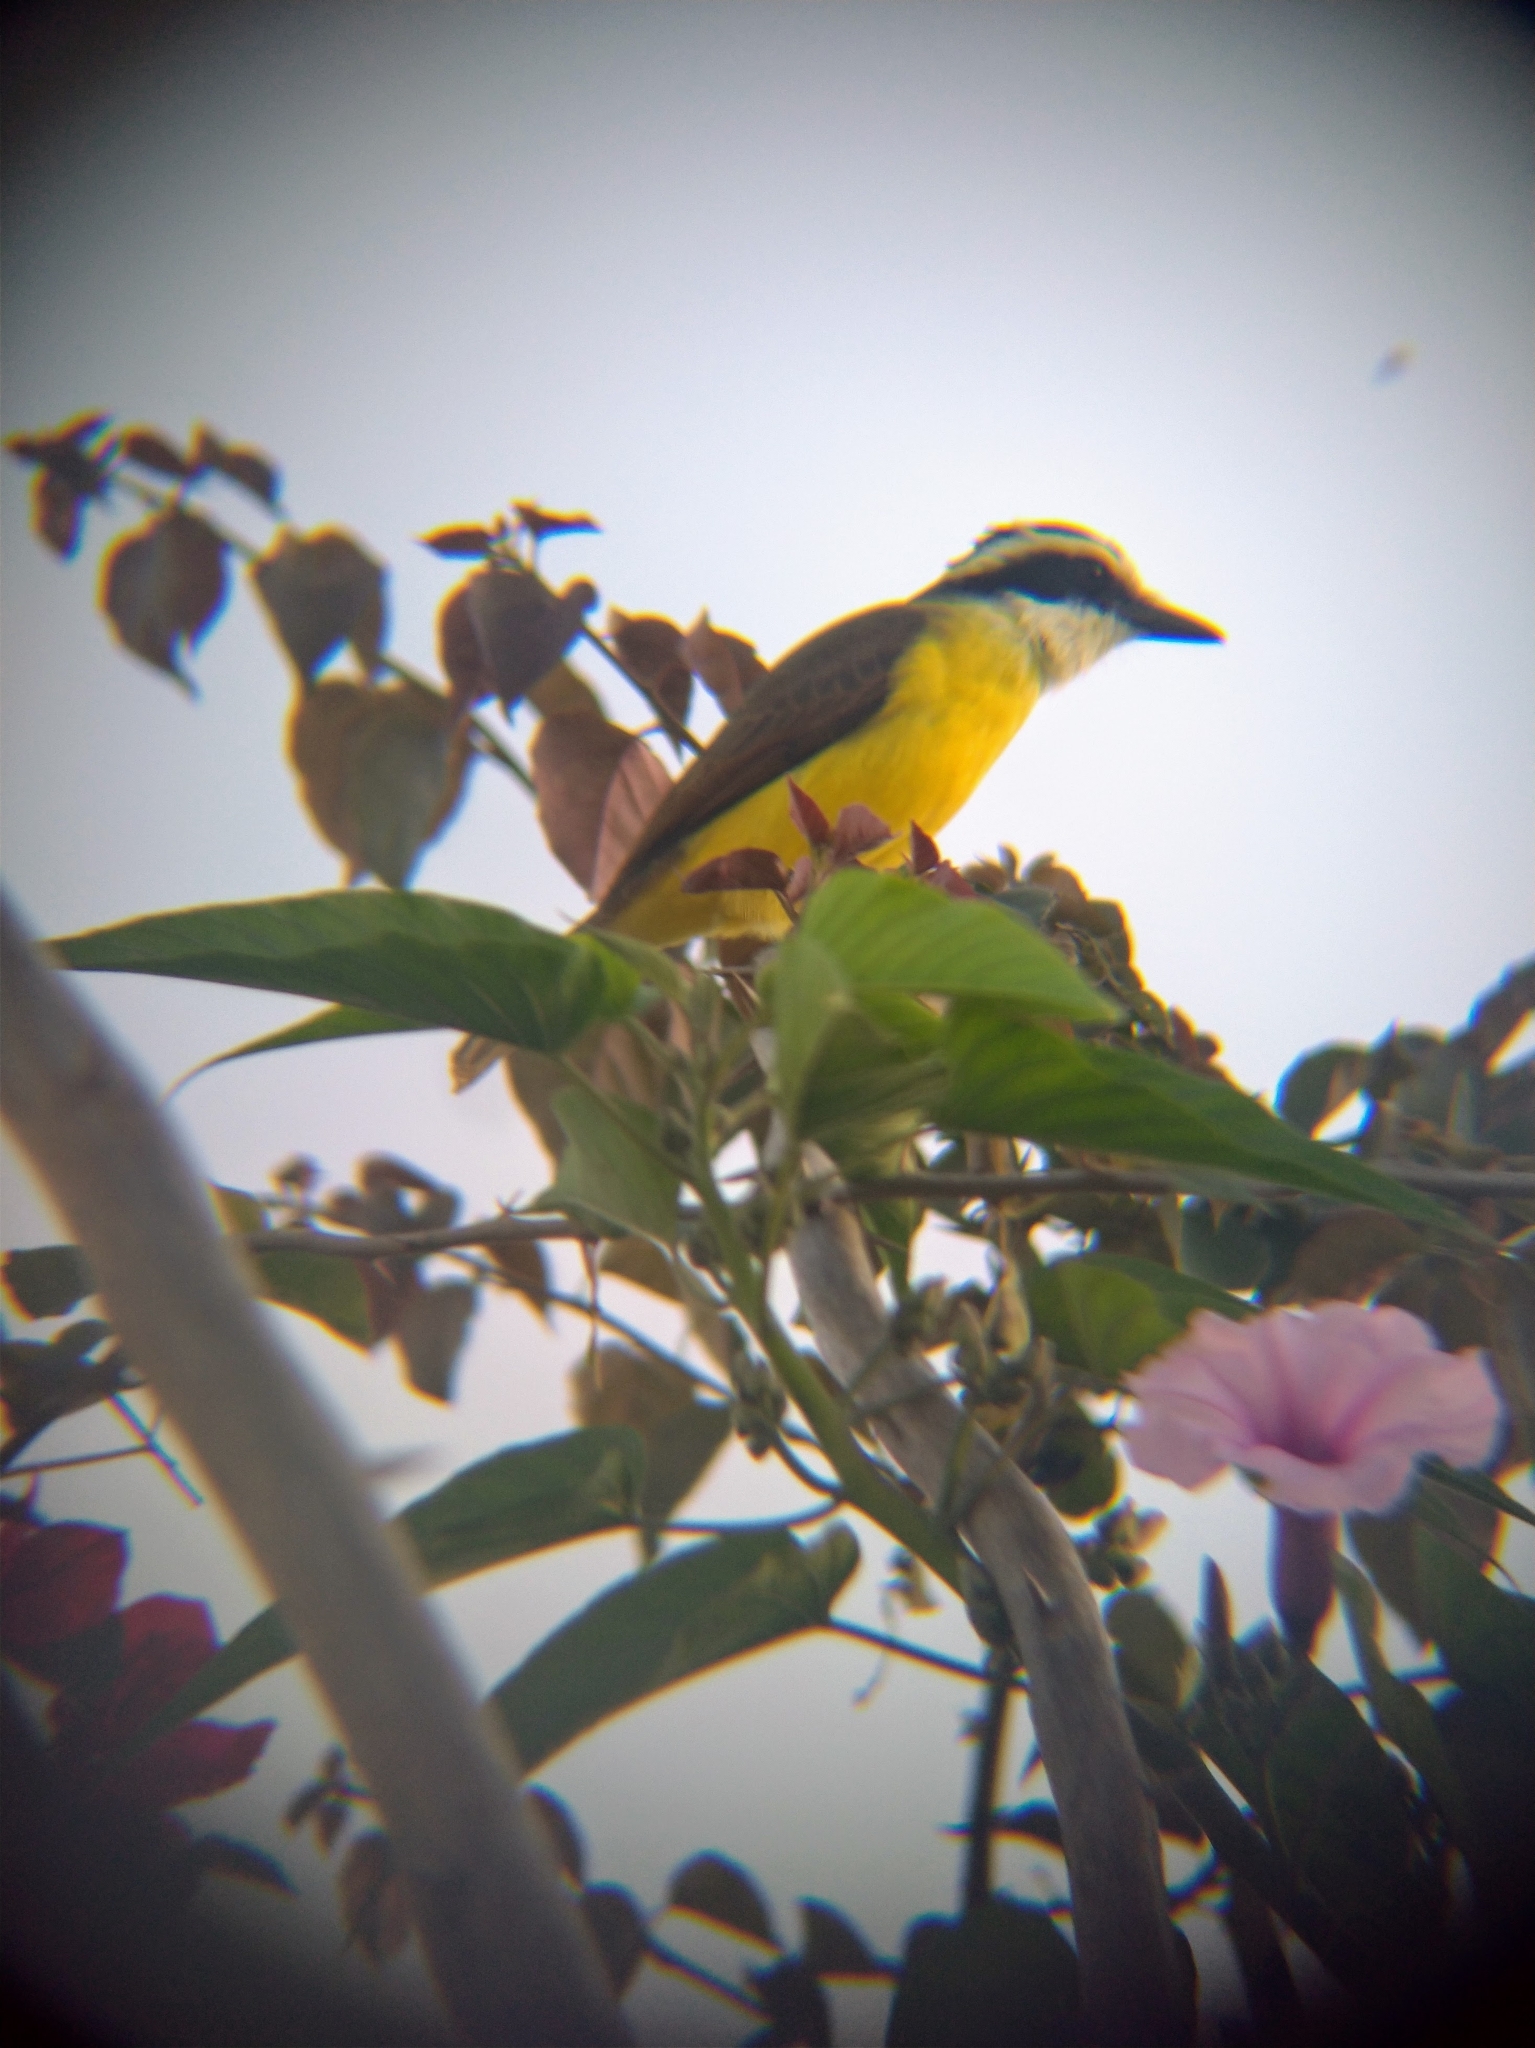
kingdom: Animalia
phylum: Chordata
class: Aves
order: Passeriformes
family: Tyrannidae
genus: Pitangus
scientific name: Pitangus sulphuratus
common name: Great kiskadee
